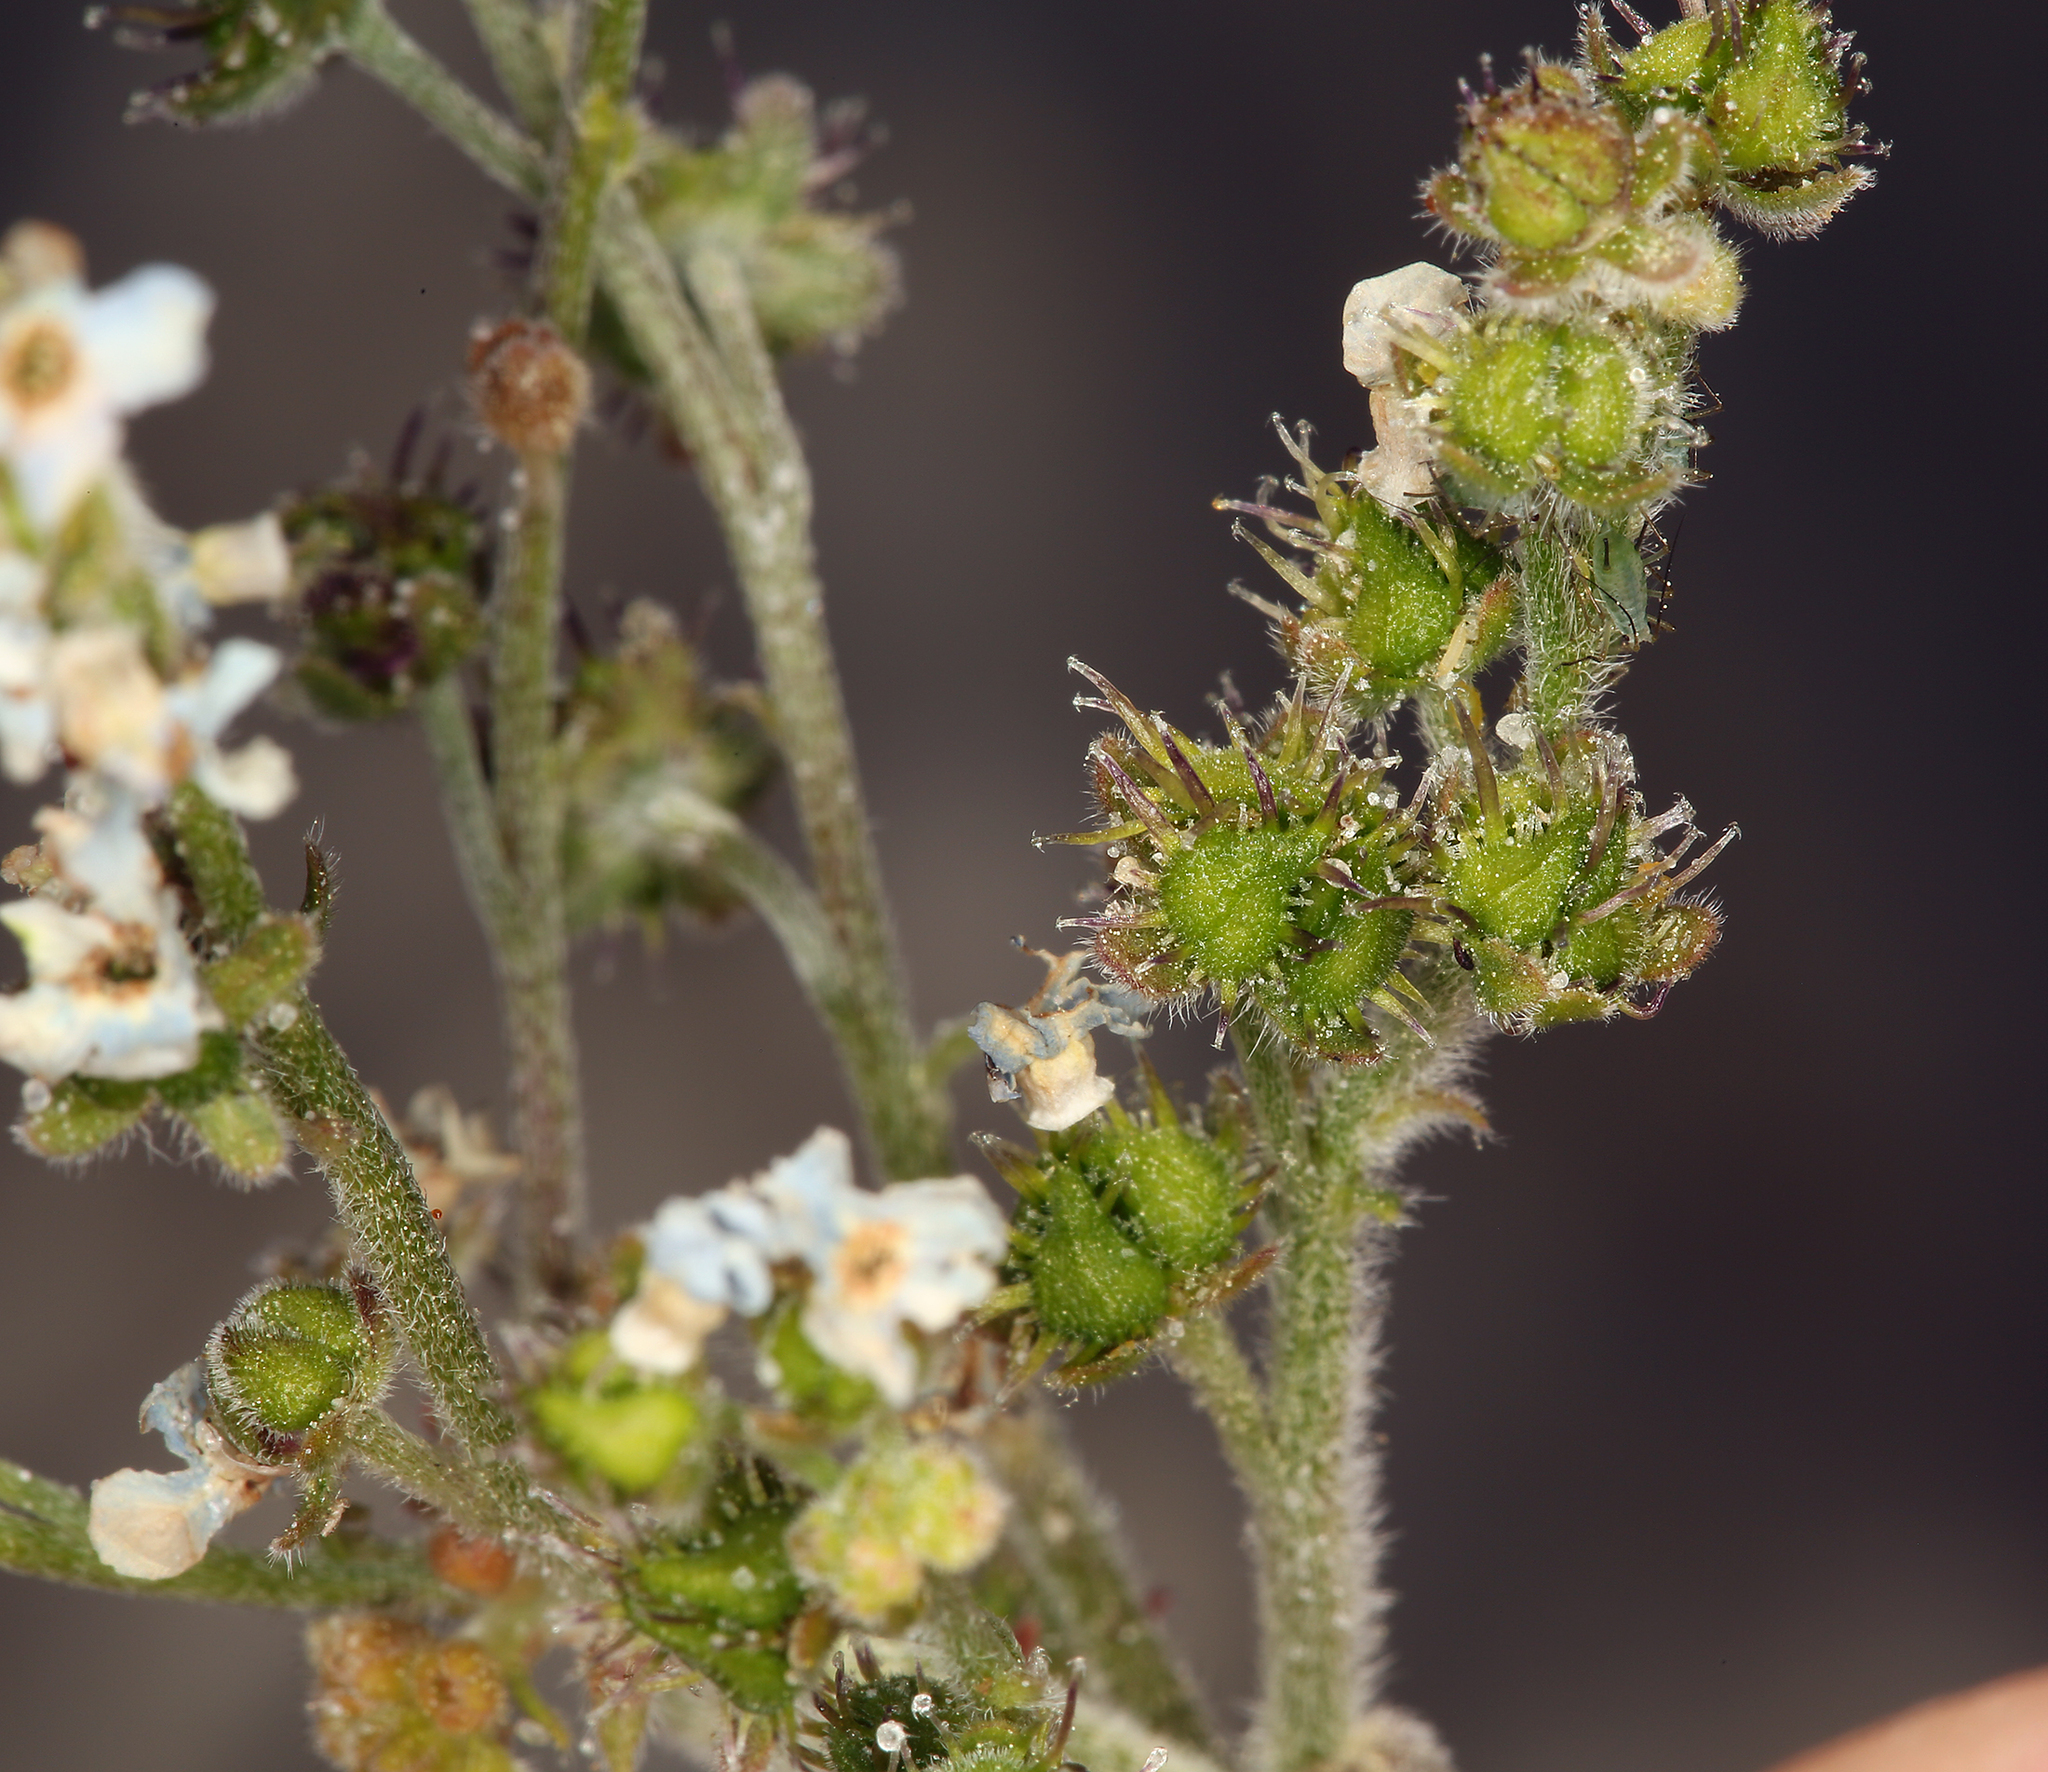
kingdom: Plantae
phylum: Tracheophyta
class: Magnoliopsida
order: Boraginales
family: Boraginaceae
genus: Hackelia
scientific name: Hackelia brevicula
